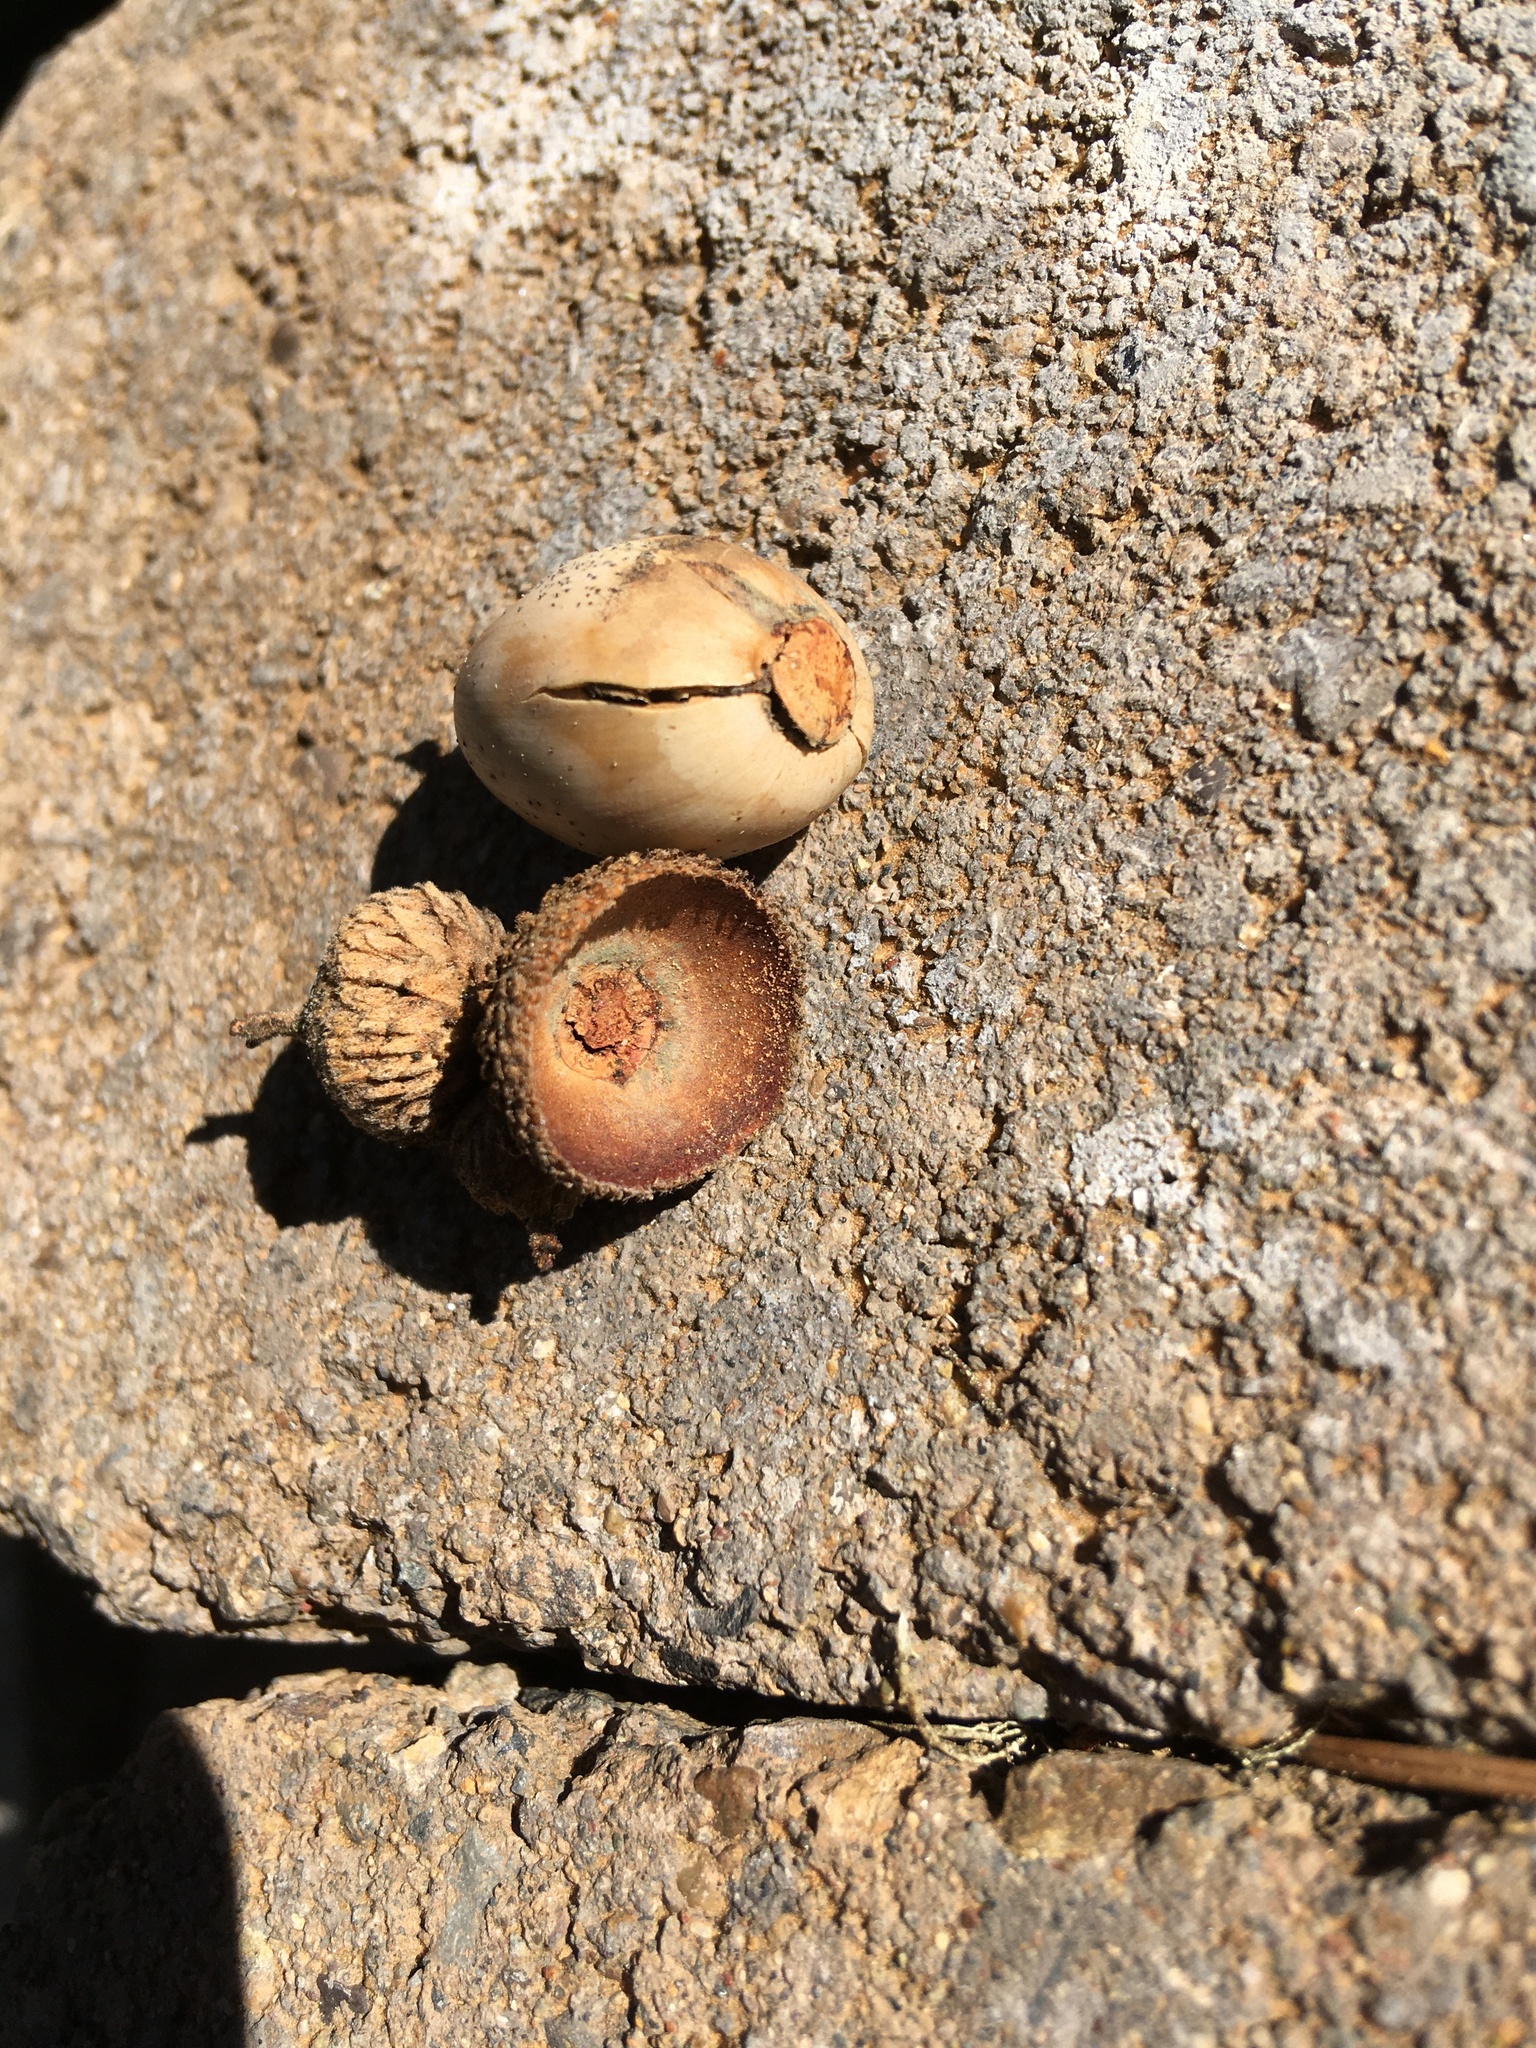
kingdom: Plantae
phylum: Tracheophyta
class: Magnoliopsida
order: Fagales
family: Fagaceae
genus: Quercus
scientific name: Quercus garryana
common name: Garry oak
